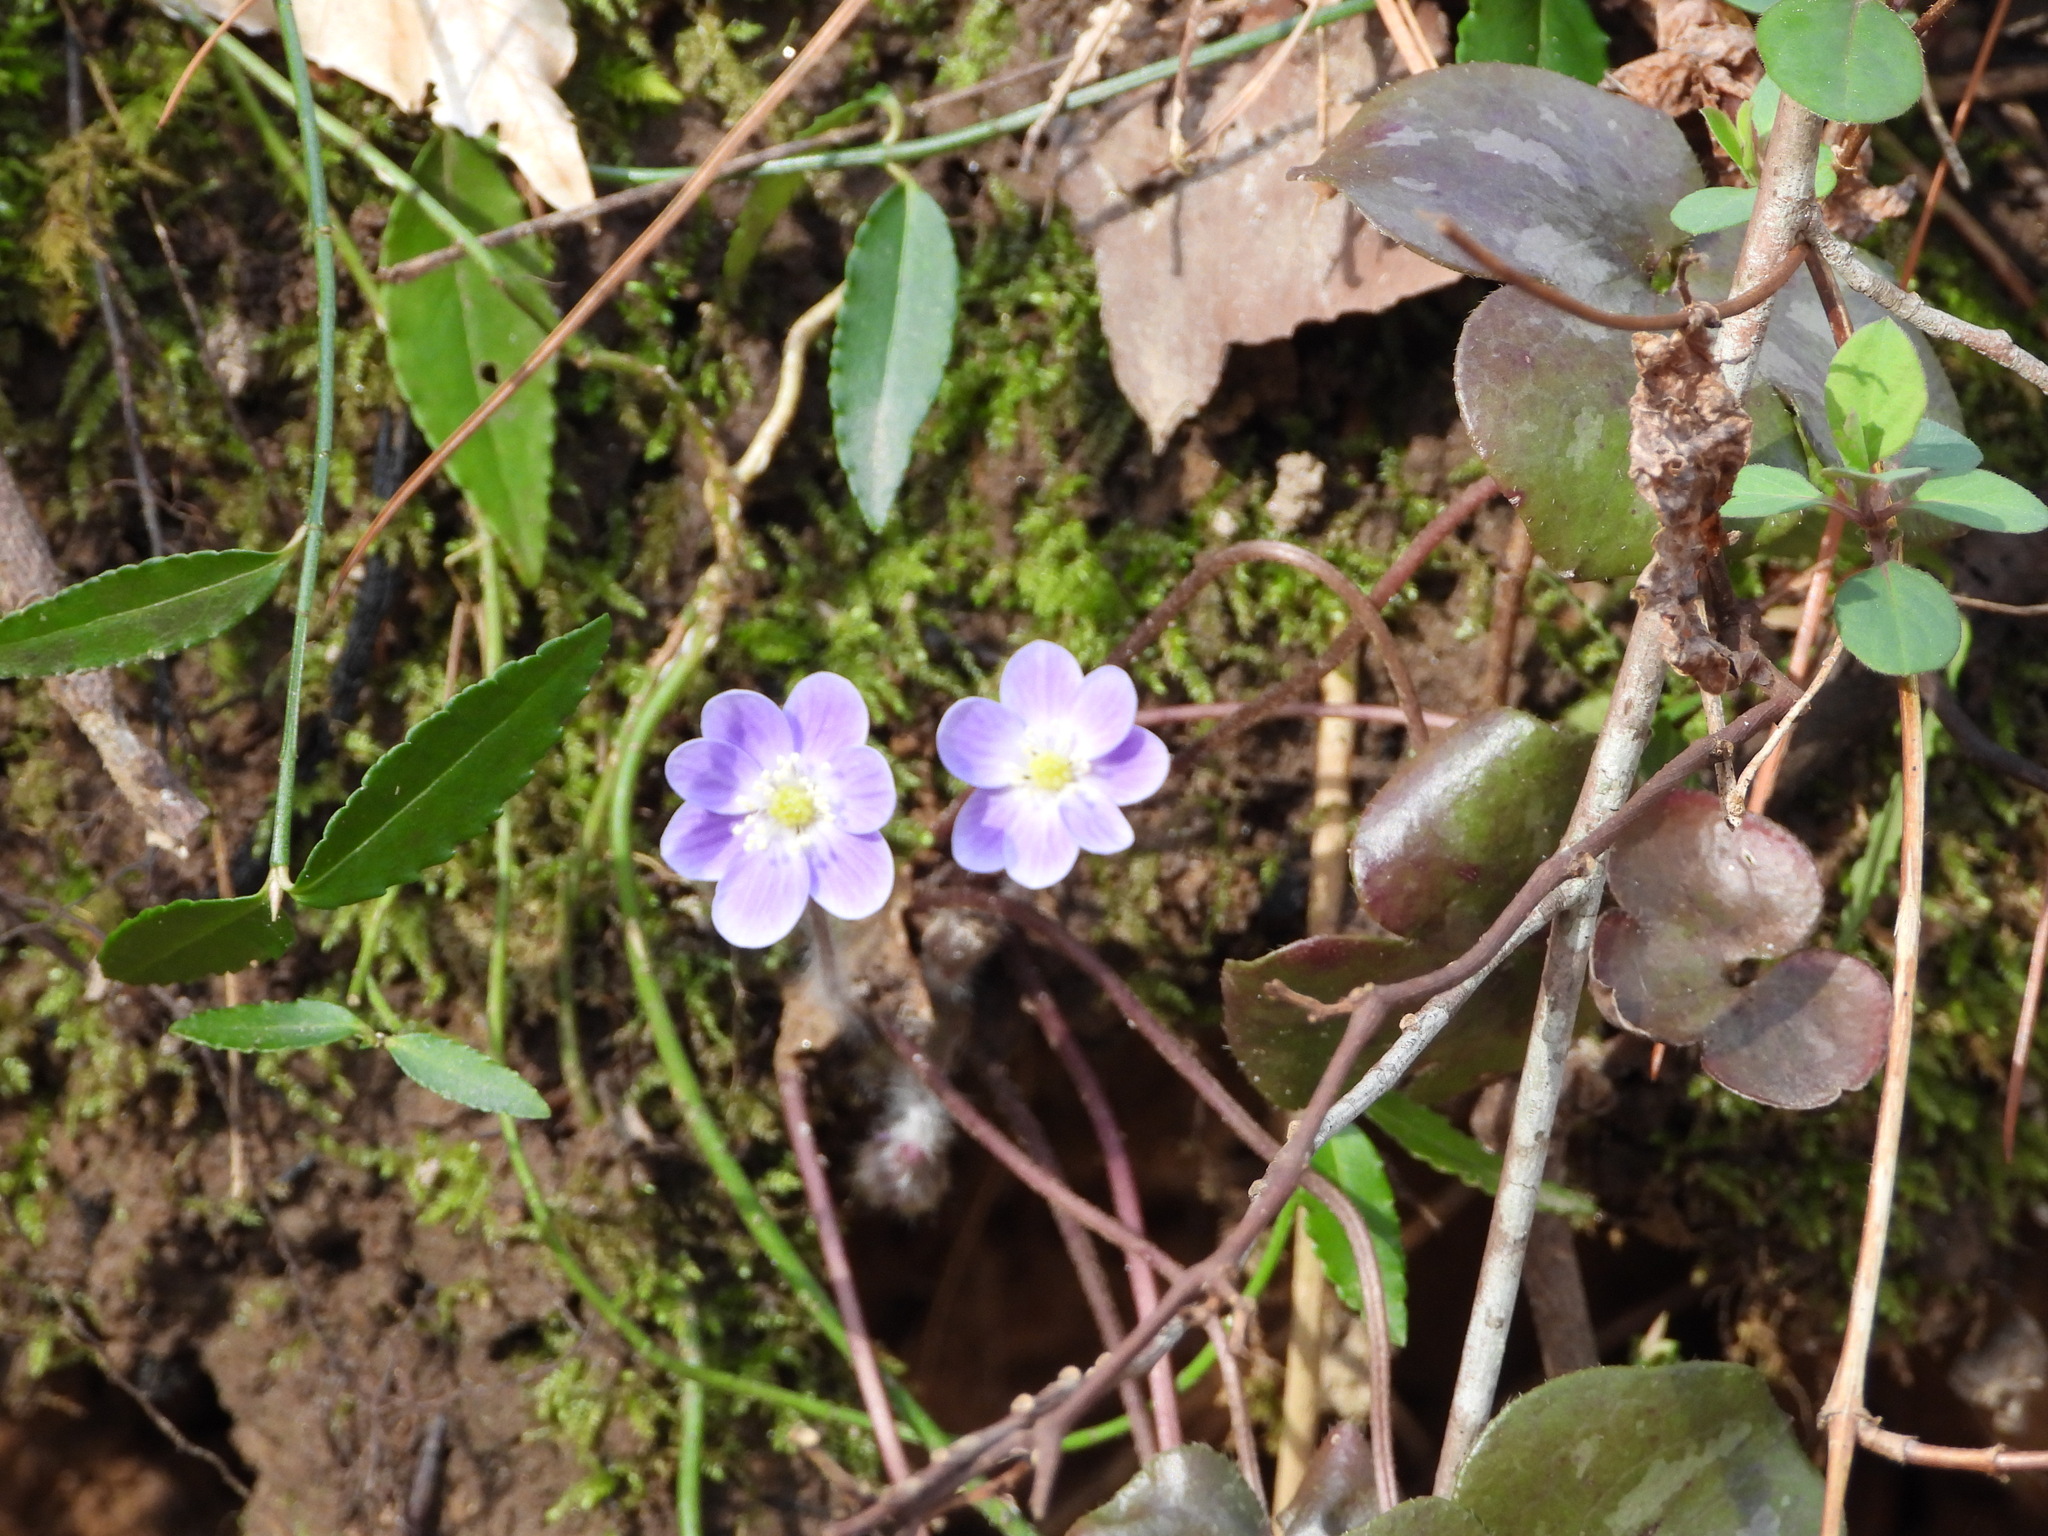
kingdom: Plantae
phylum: Tracheophyta
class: Magnoliopsida
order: Ranunculales
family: Ranunculaceae
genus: Hepatica
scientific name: Hepatica americana
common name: American hepatica
